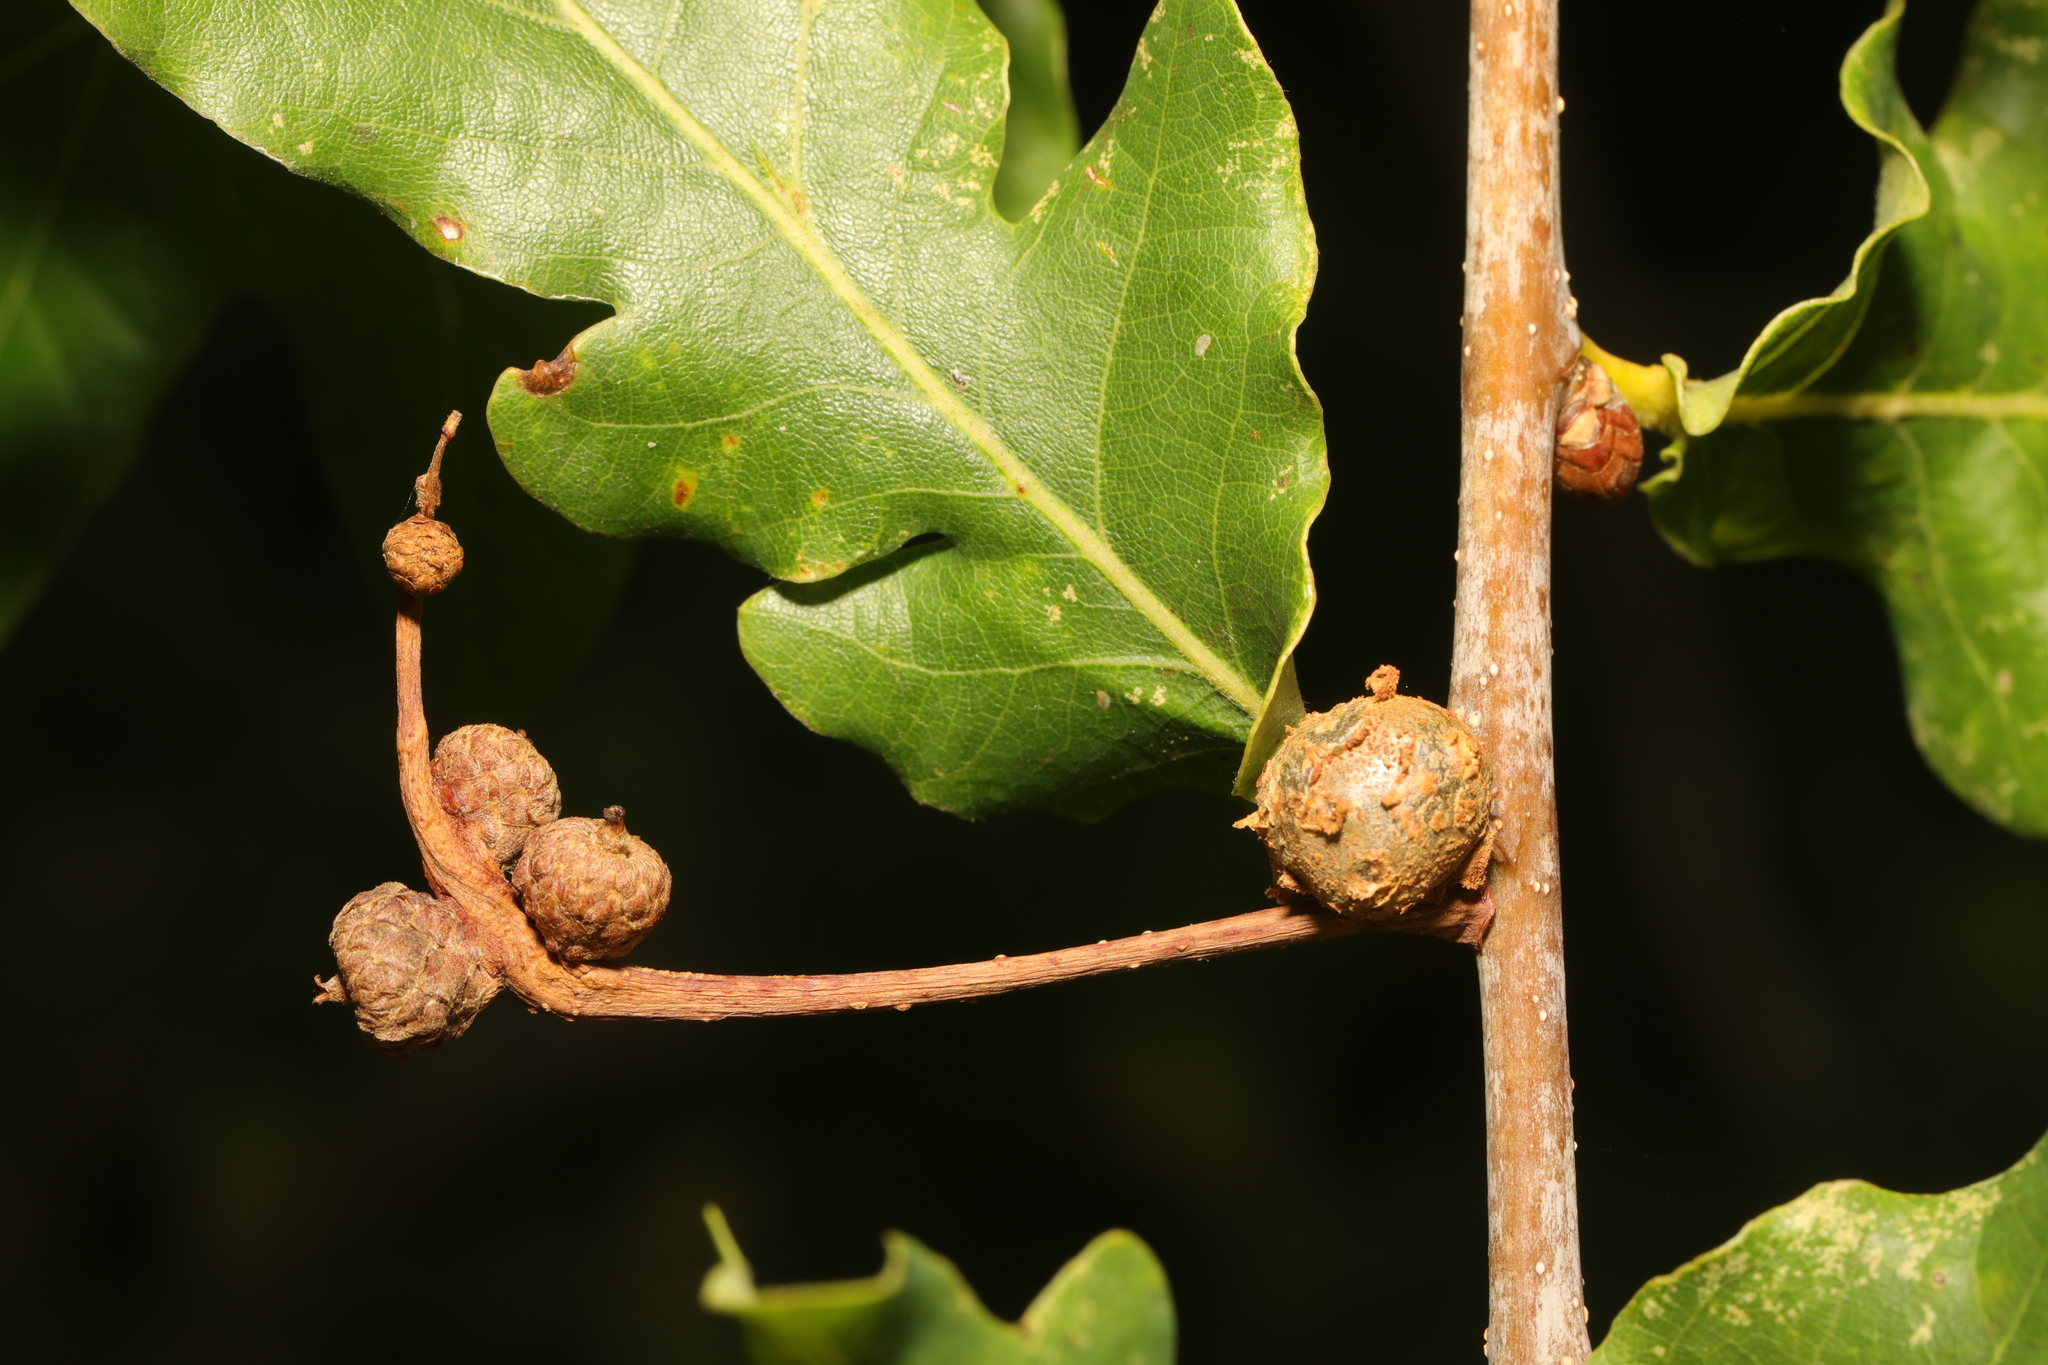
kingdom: Animalia
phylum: Arthropoda
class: Insecta
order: Hymenoptera
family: Cynipidae
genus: Andricus
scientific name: Andricus lignicolus
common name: Cola-nut gall
